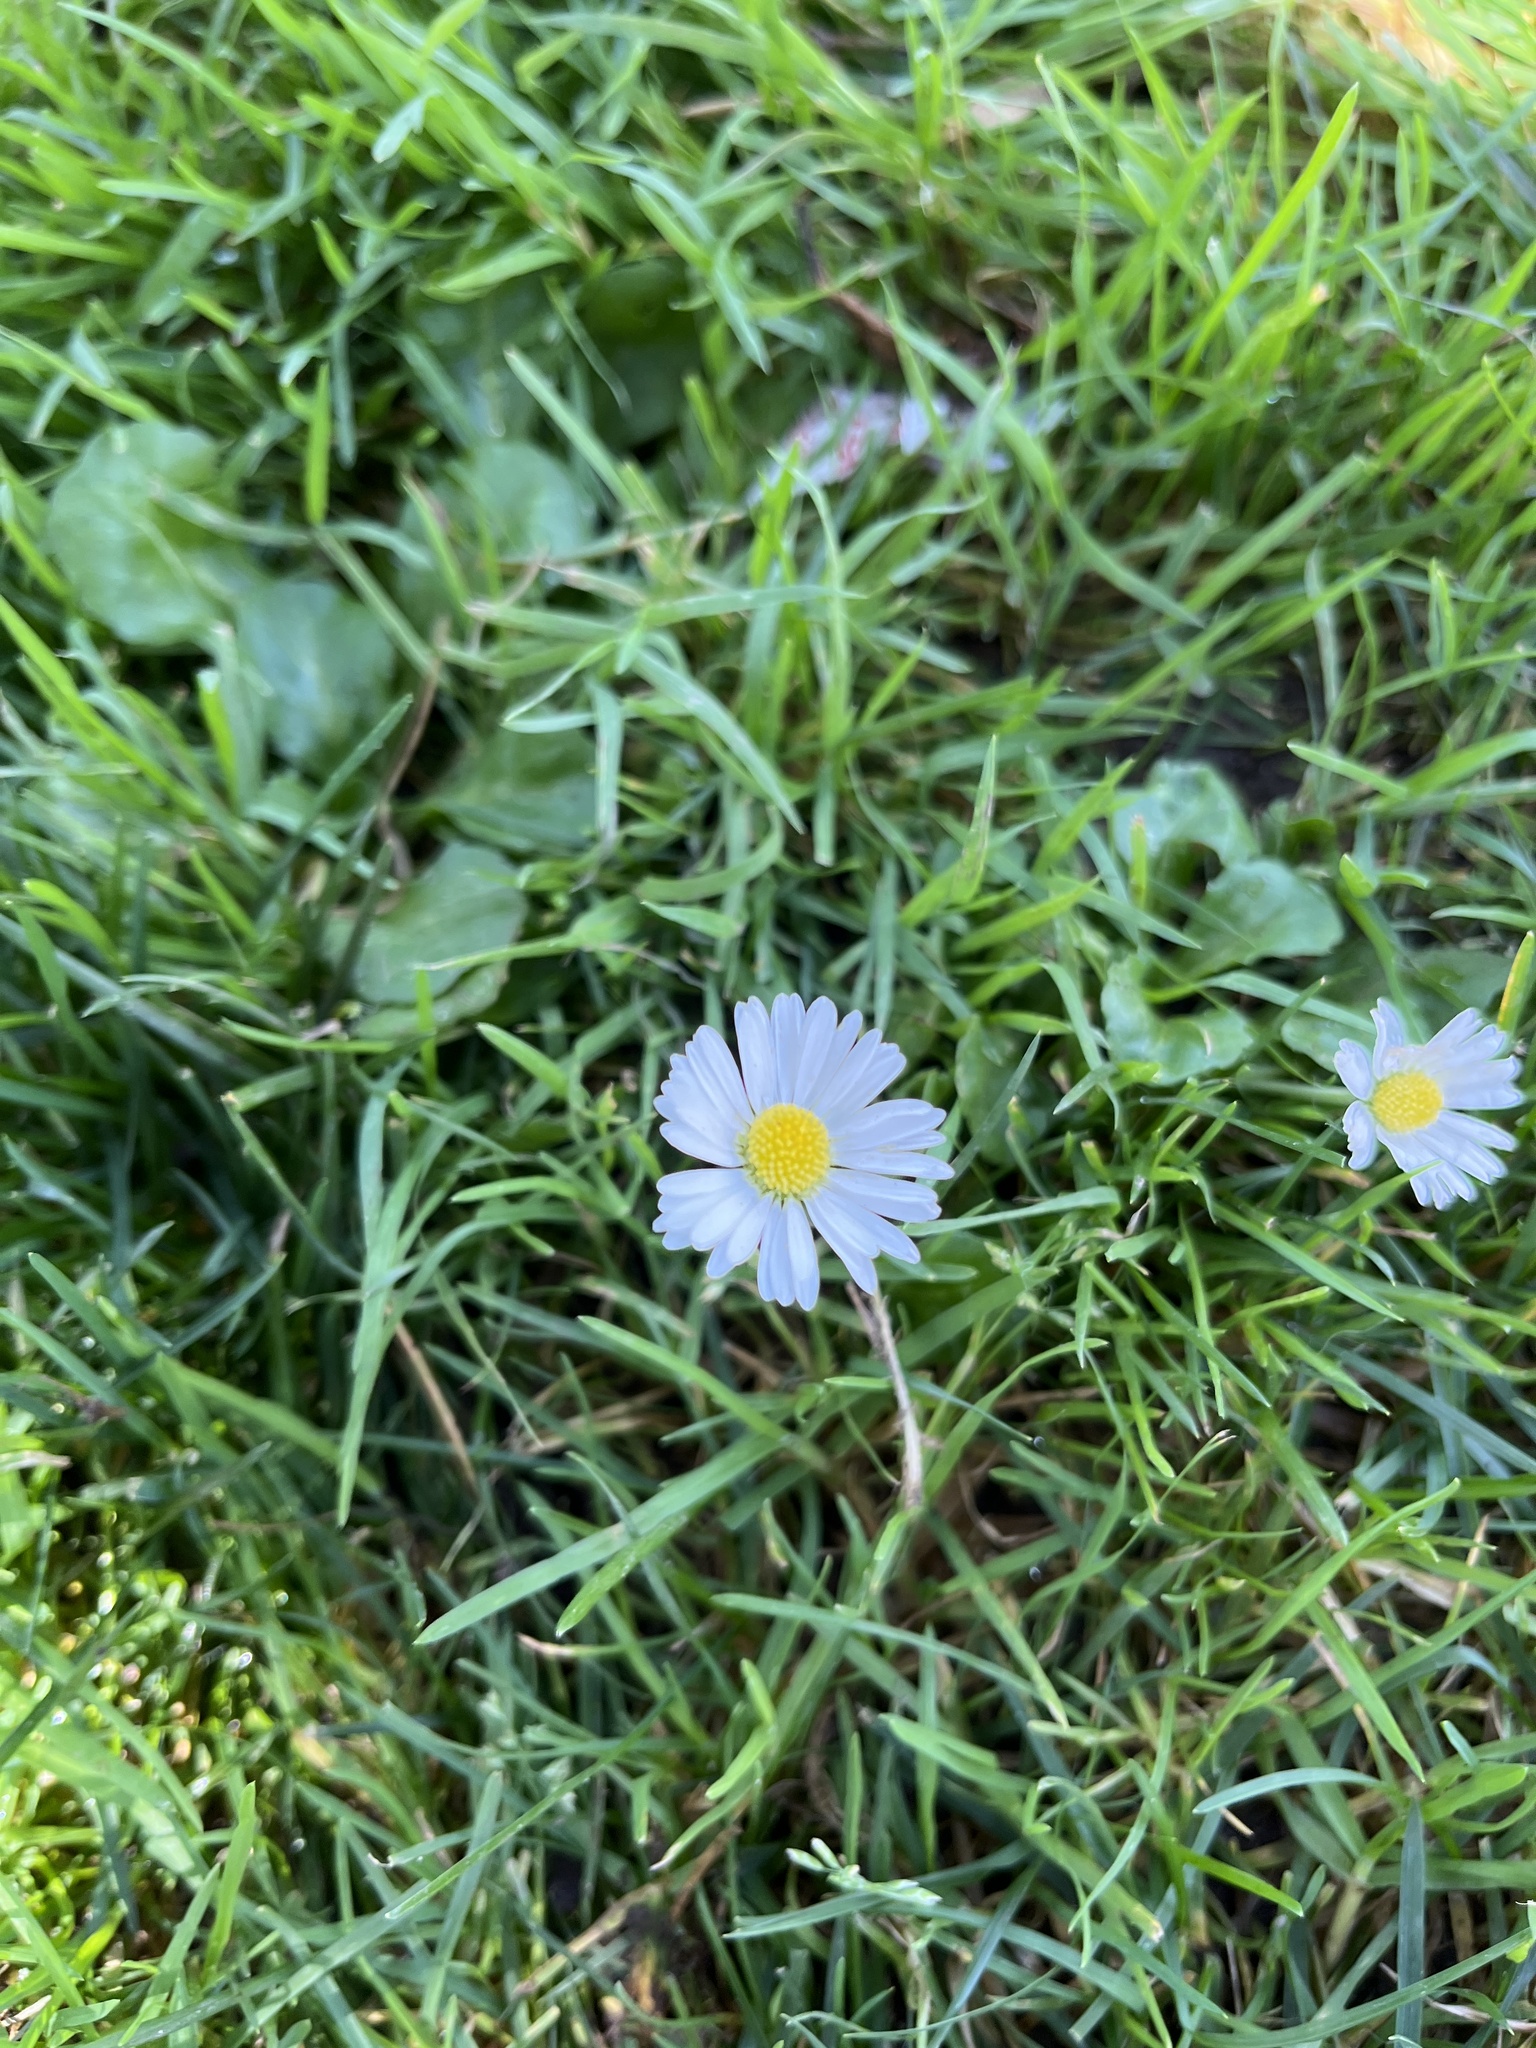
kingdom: Plantae
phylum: Tracheophyta
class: Magnoliopsida
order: Asterales
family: Asteraceae
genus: Bellis
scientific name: Bellis perennis
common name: Lawndaisy
